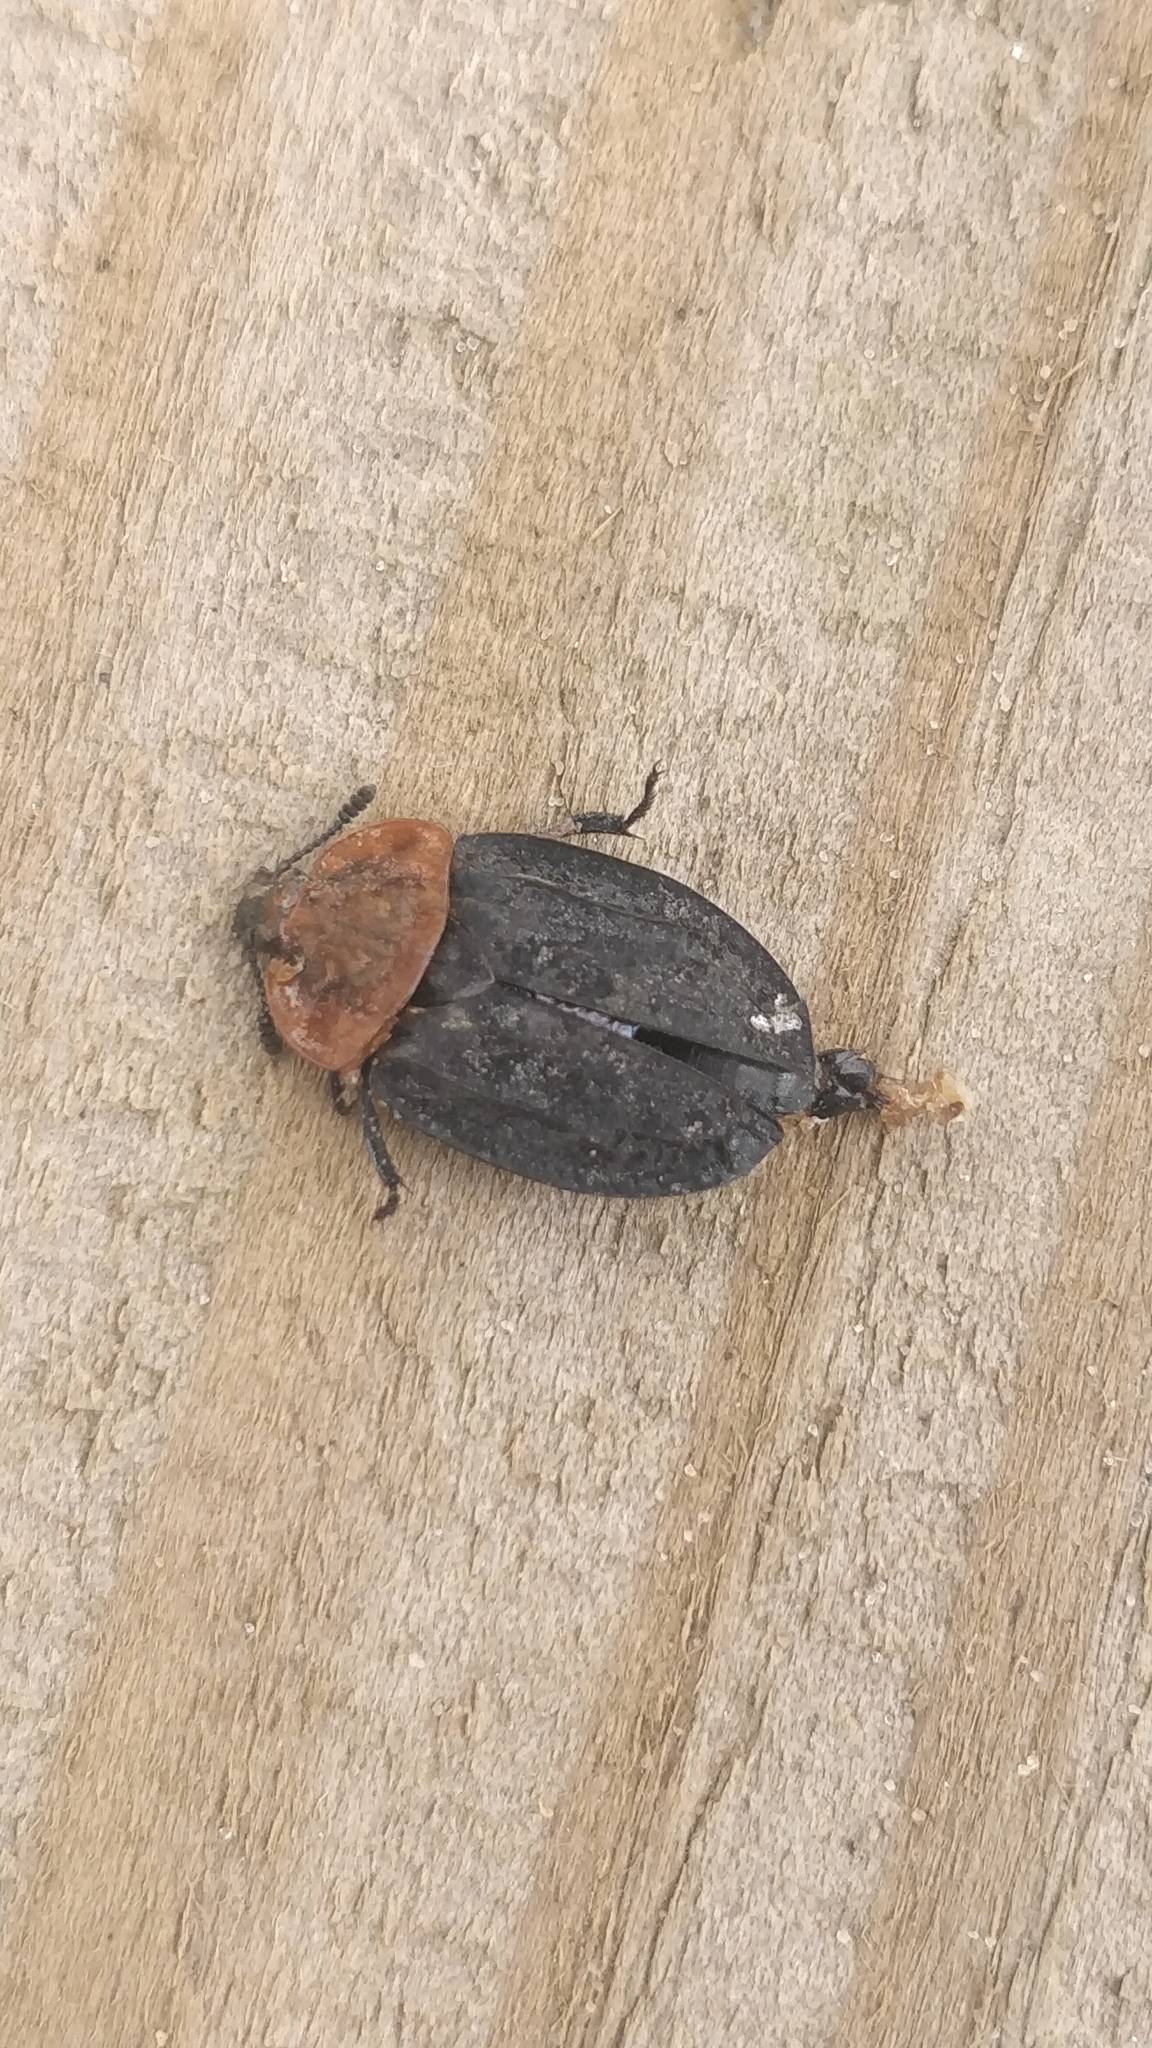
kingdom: Animalia
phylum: Arthropoda
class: Insecta
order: Coleoptera
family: Staphylinidae
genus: Oiceoptoma
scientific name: Oiceoptoma thoracicum
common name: Red-breasted carrion beetle
